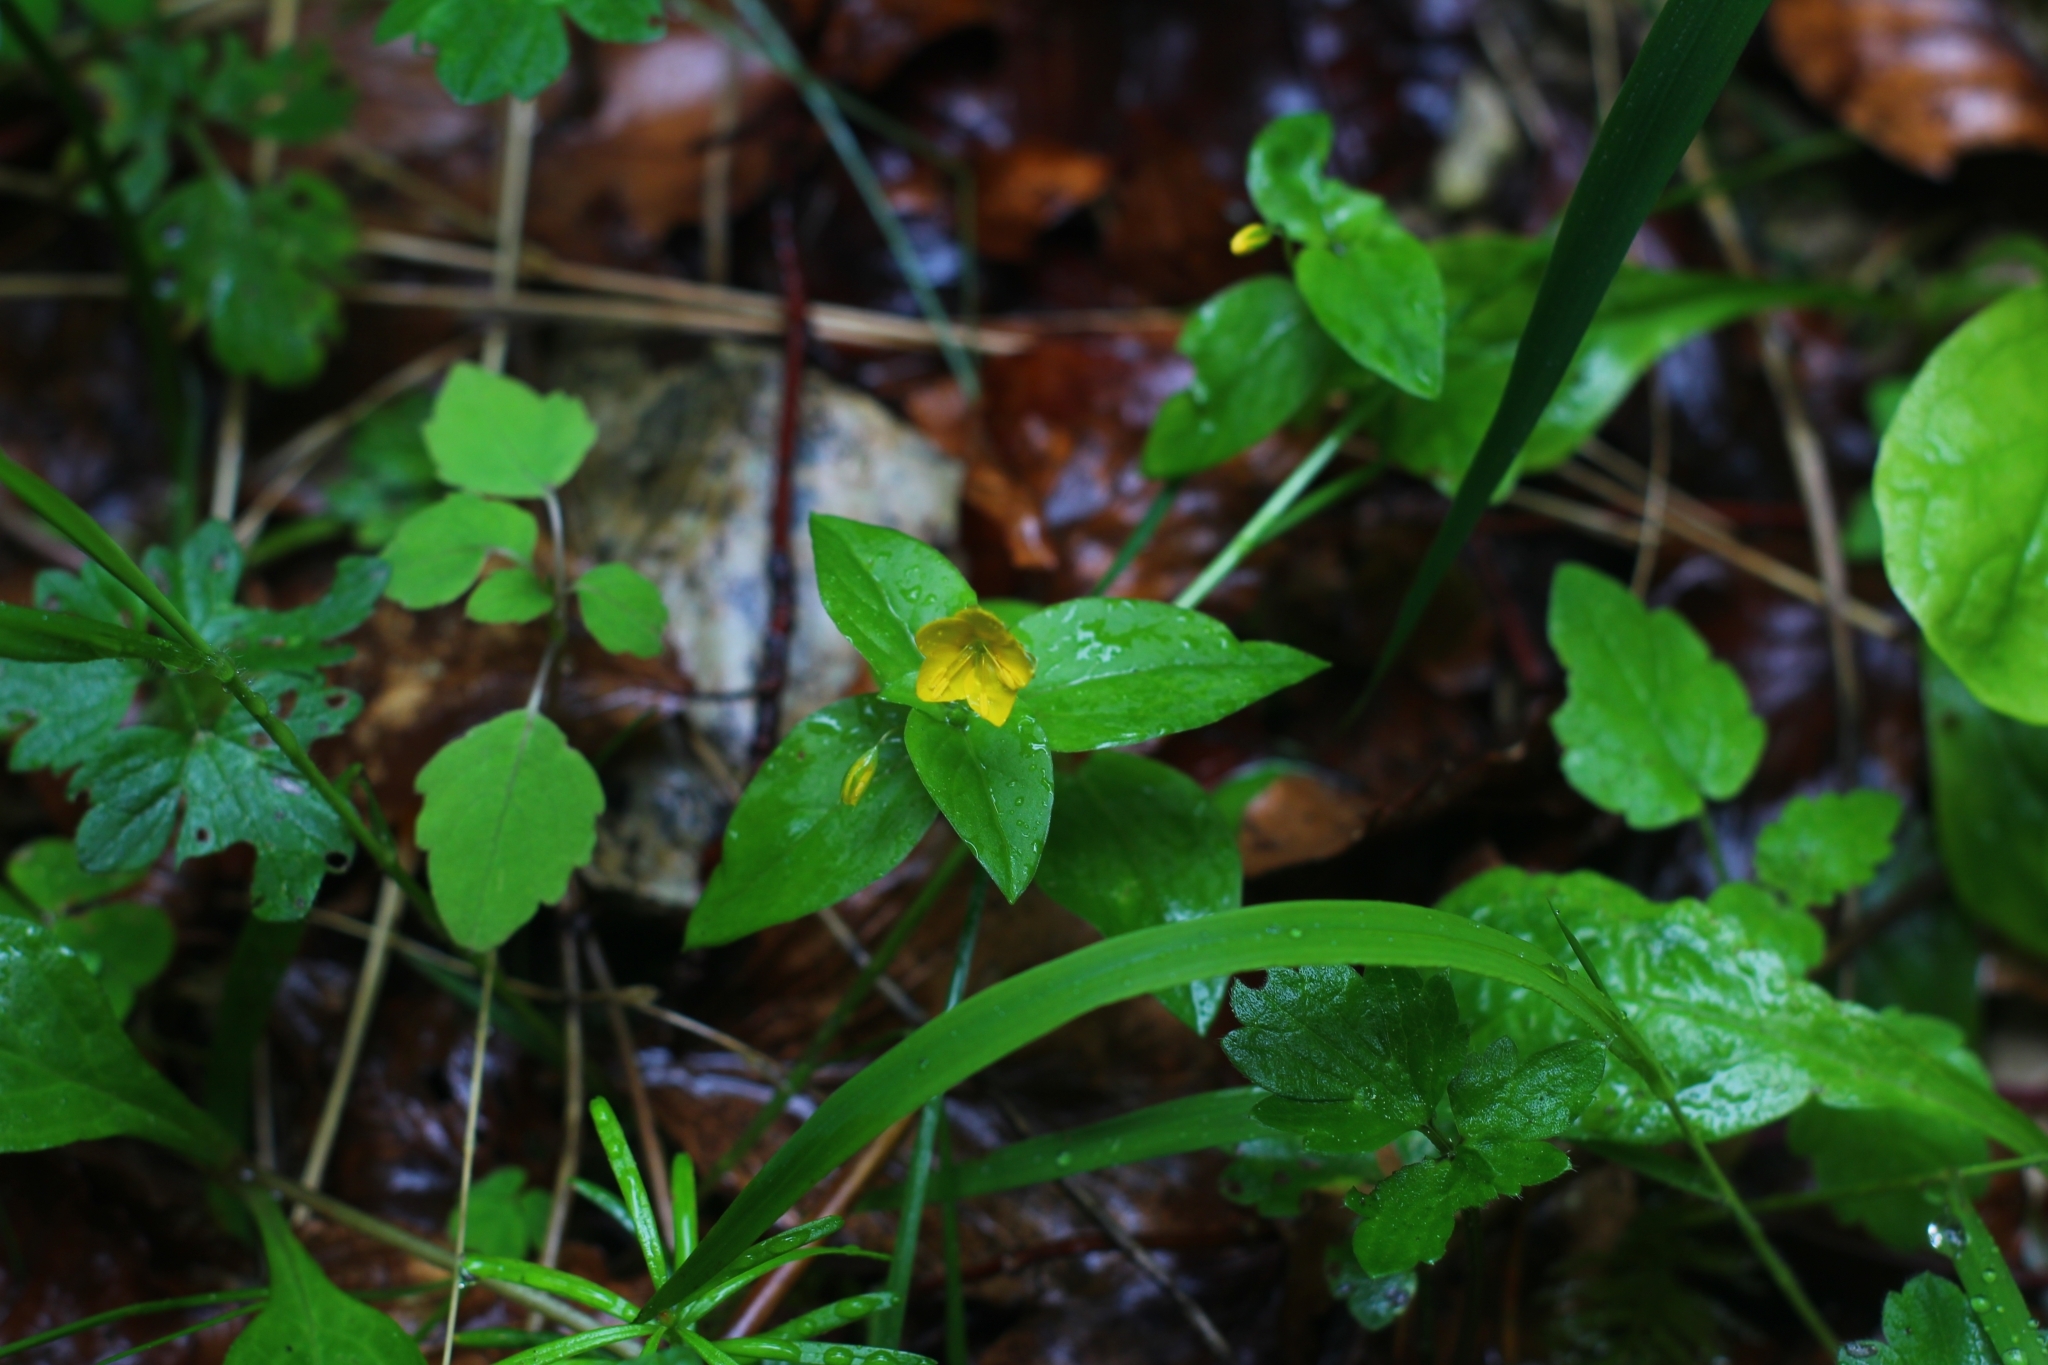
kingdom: Plantae
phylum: Tracheophyta
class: Magnoliopsida
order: Ericales
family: Primulaceae
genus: Lysimachia
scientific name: Lysimachia nemorum
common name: Yellow pimpernel
